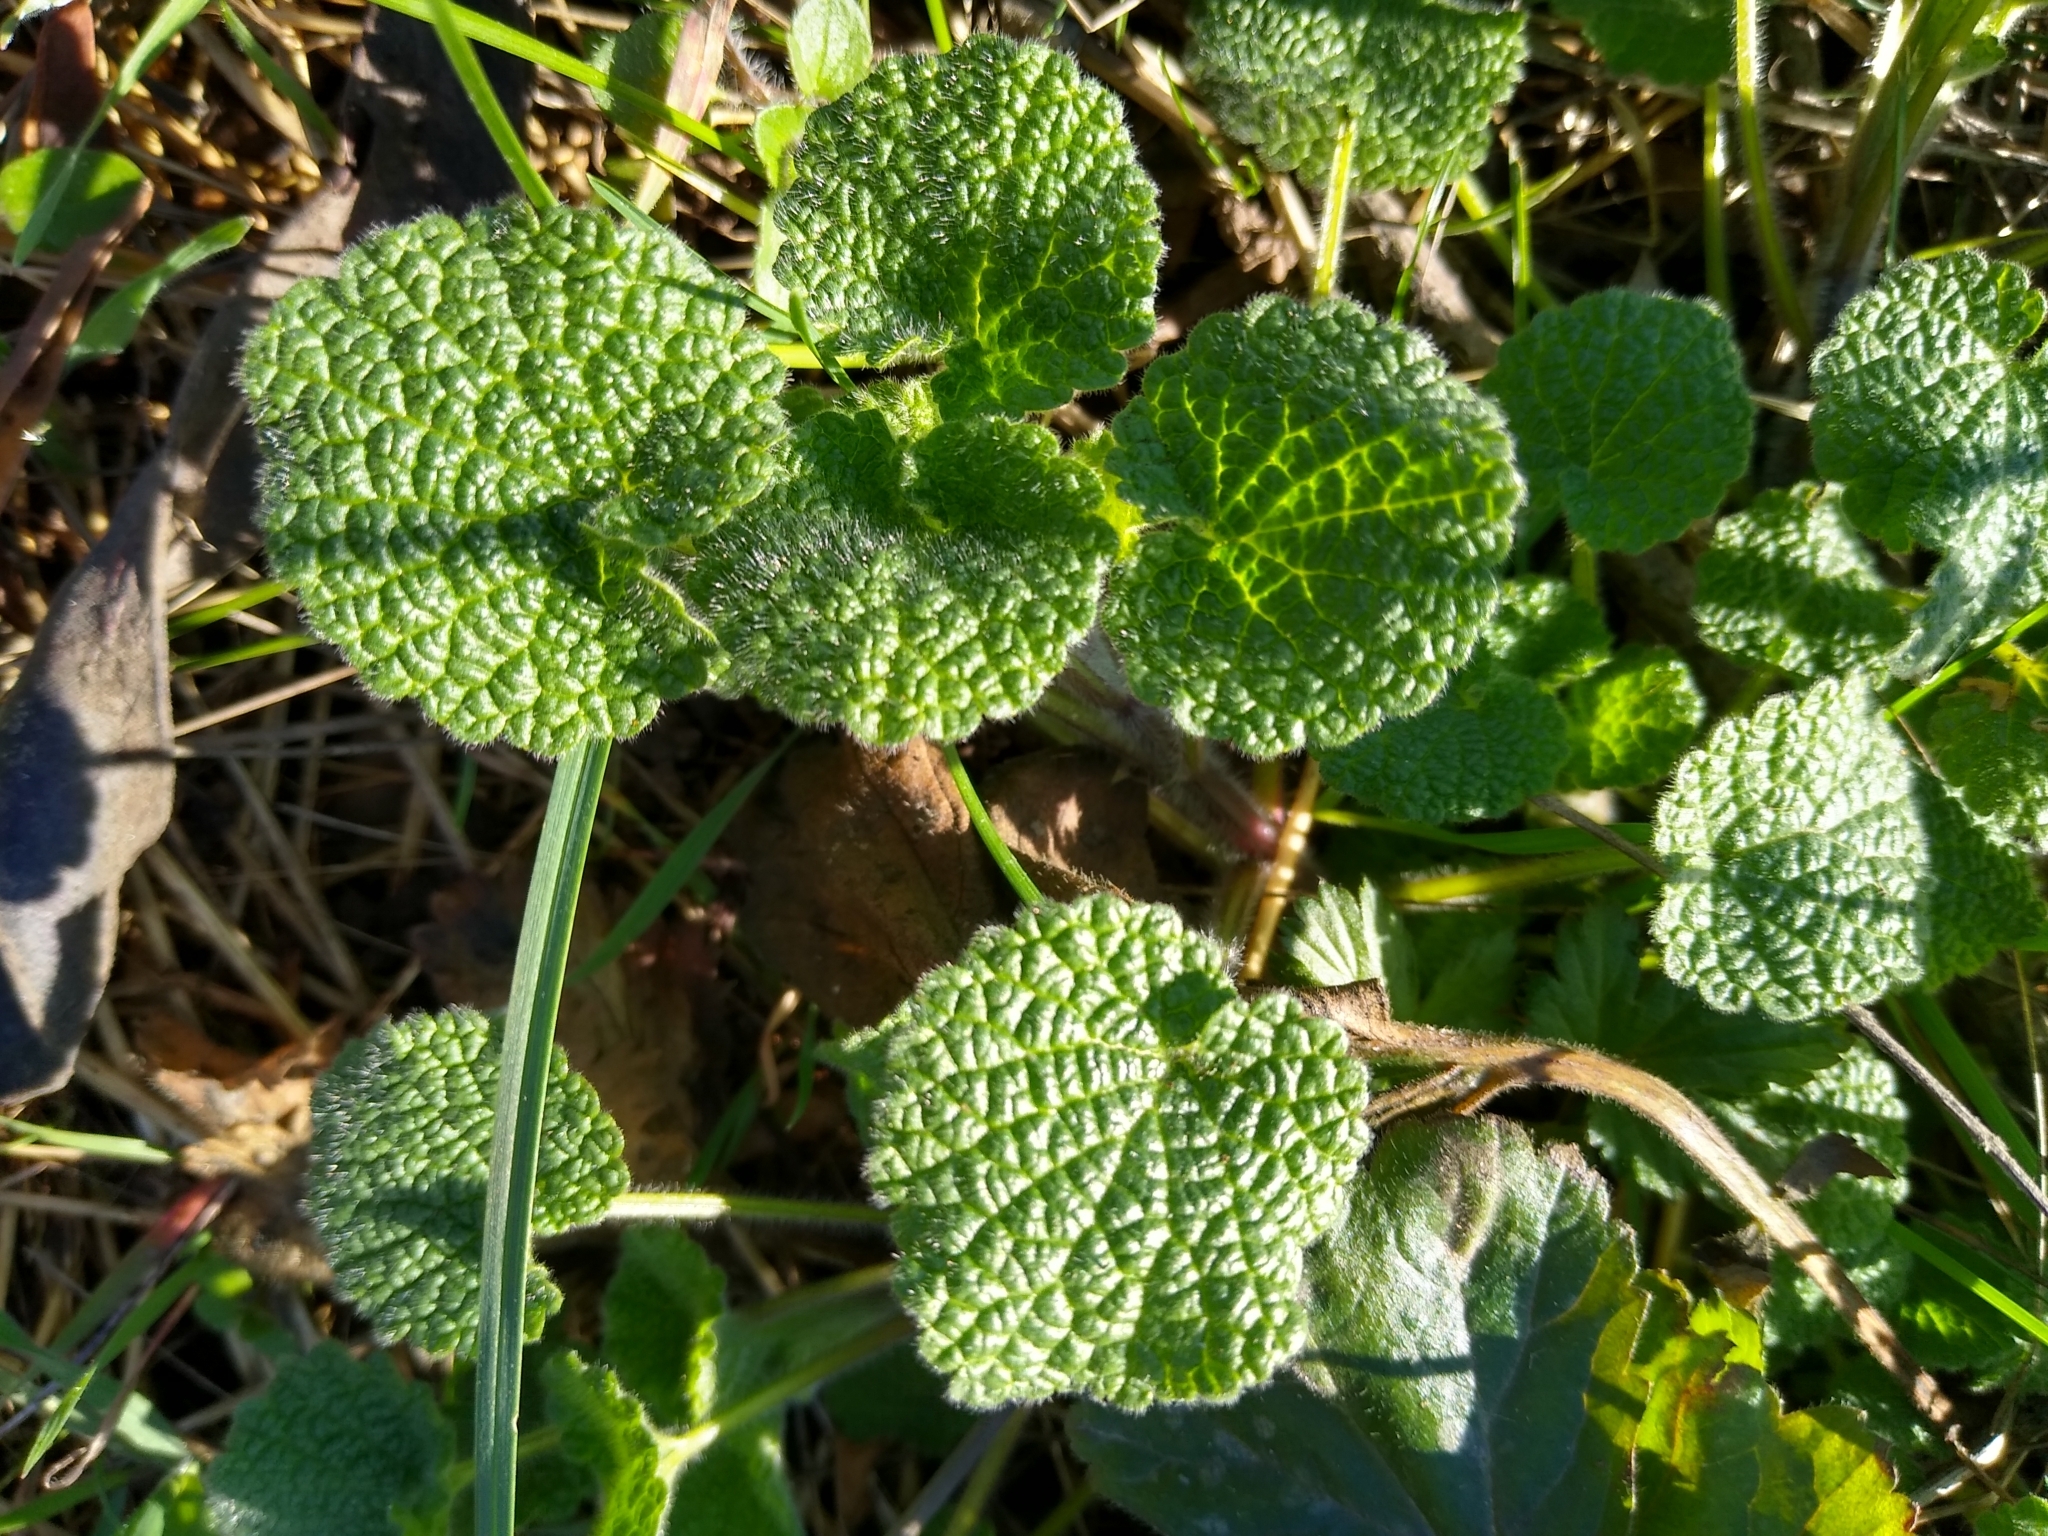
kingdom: Plantae
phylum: Tracheophyta
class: Magnoliopsida
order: Lamiales
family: Lamiaceae
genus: Ballota
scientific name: Ballota nigra
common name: Black horehound
